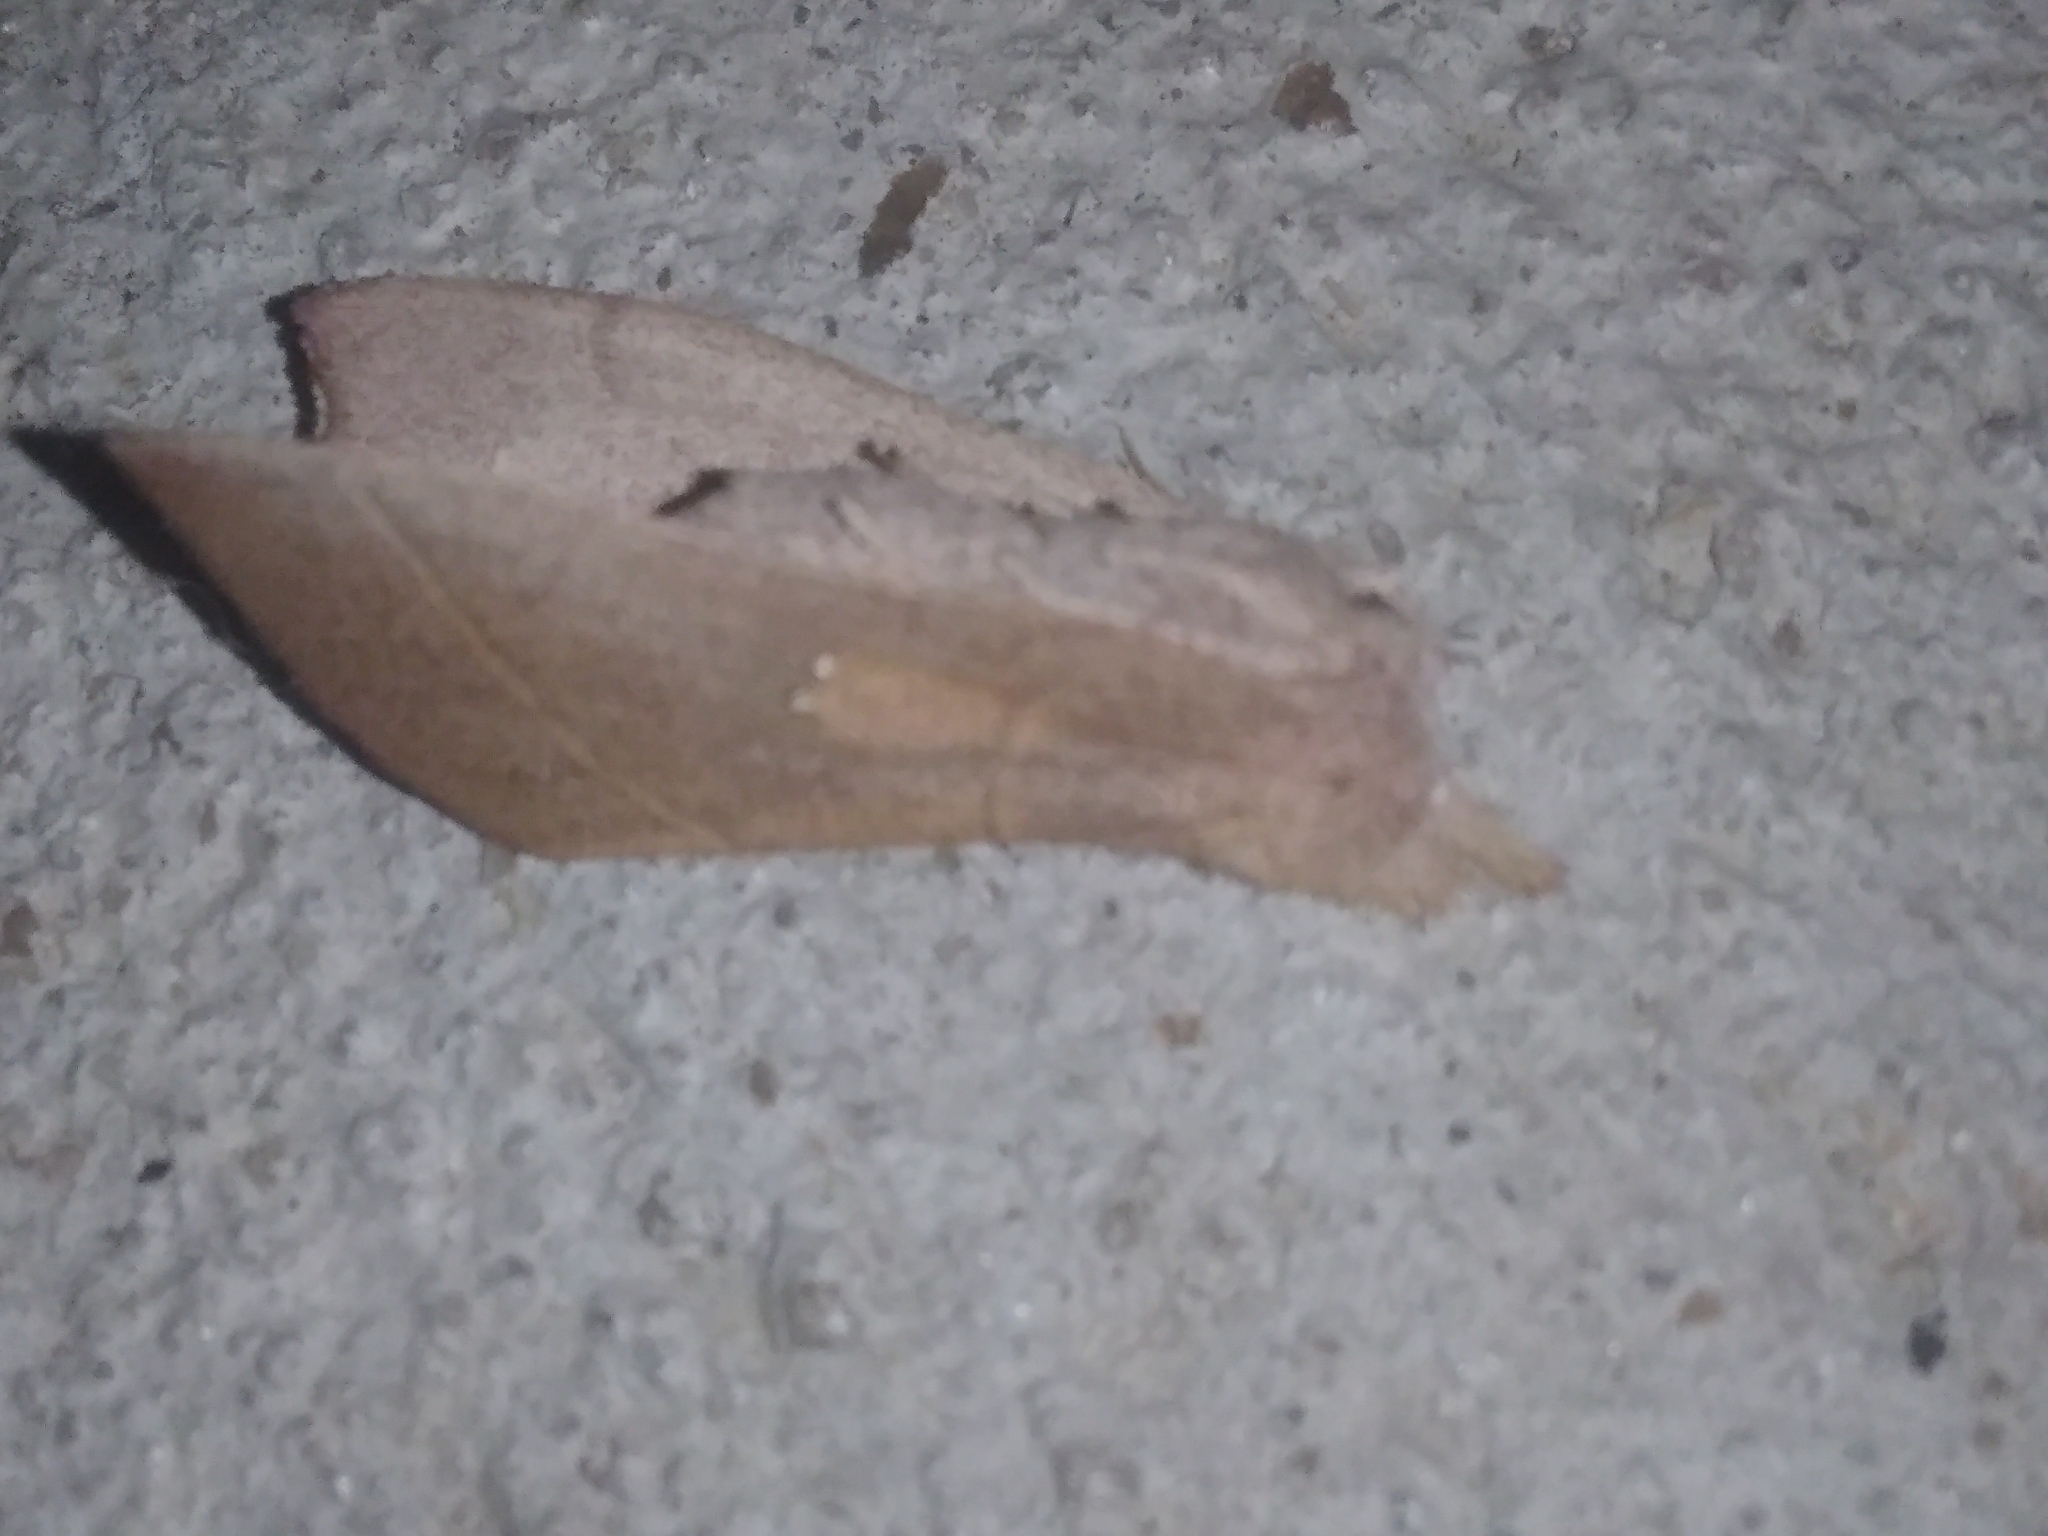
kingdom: Animalia
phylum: Arthropoda
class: Insecta
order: Lepidoptera
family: Notodontidae
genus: Nadata
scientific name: Nadata gibbosa
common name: White-dotted prominent
